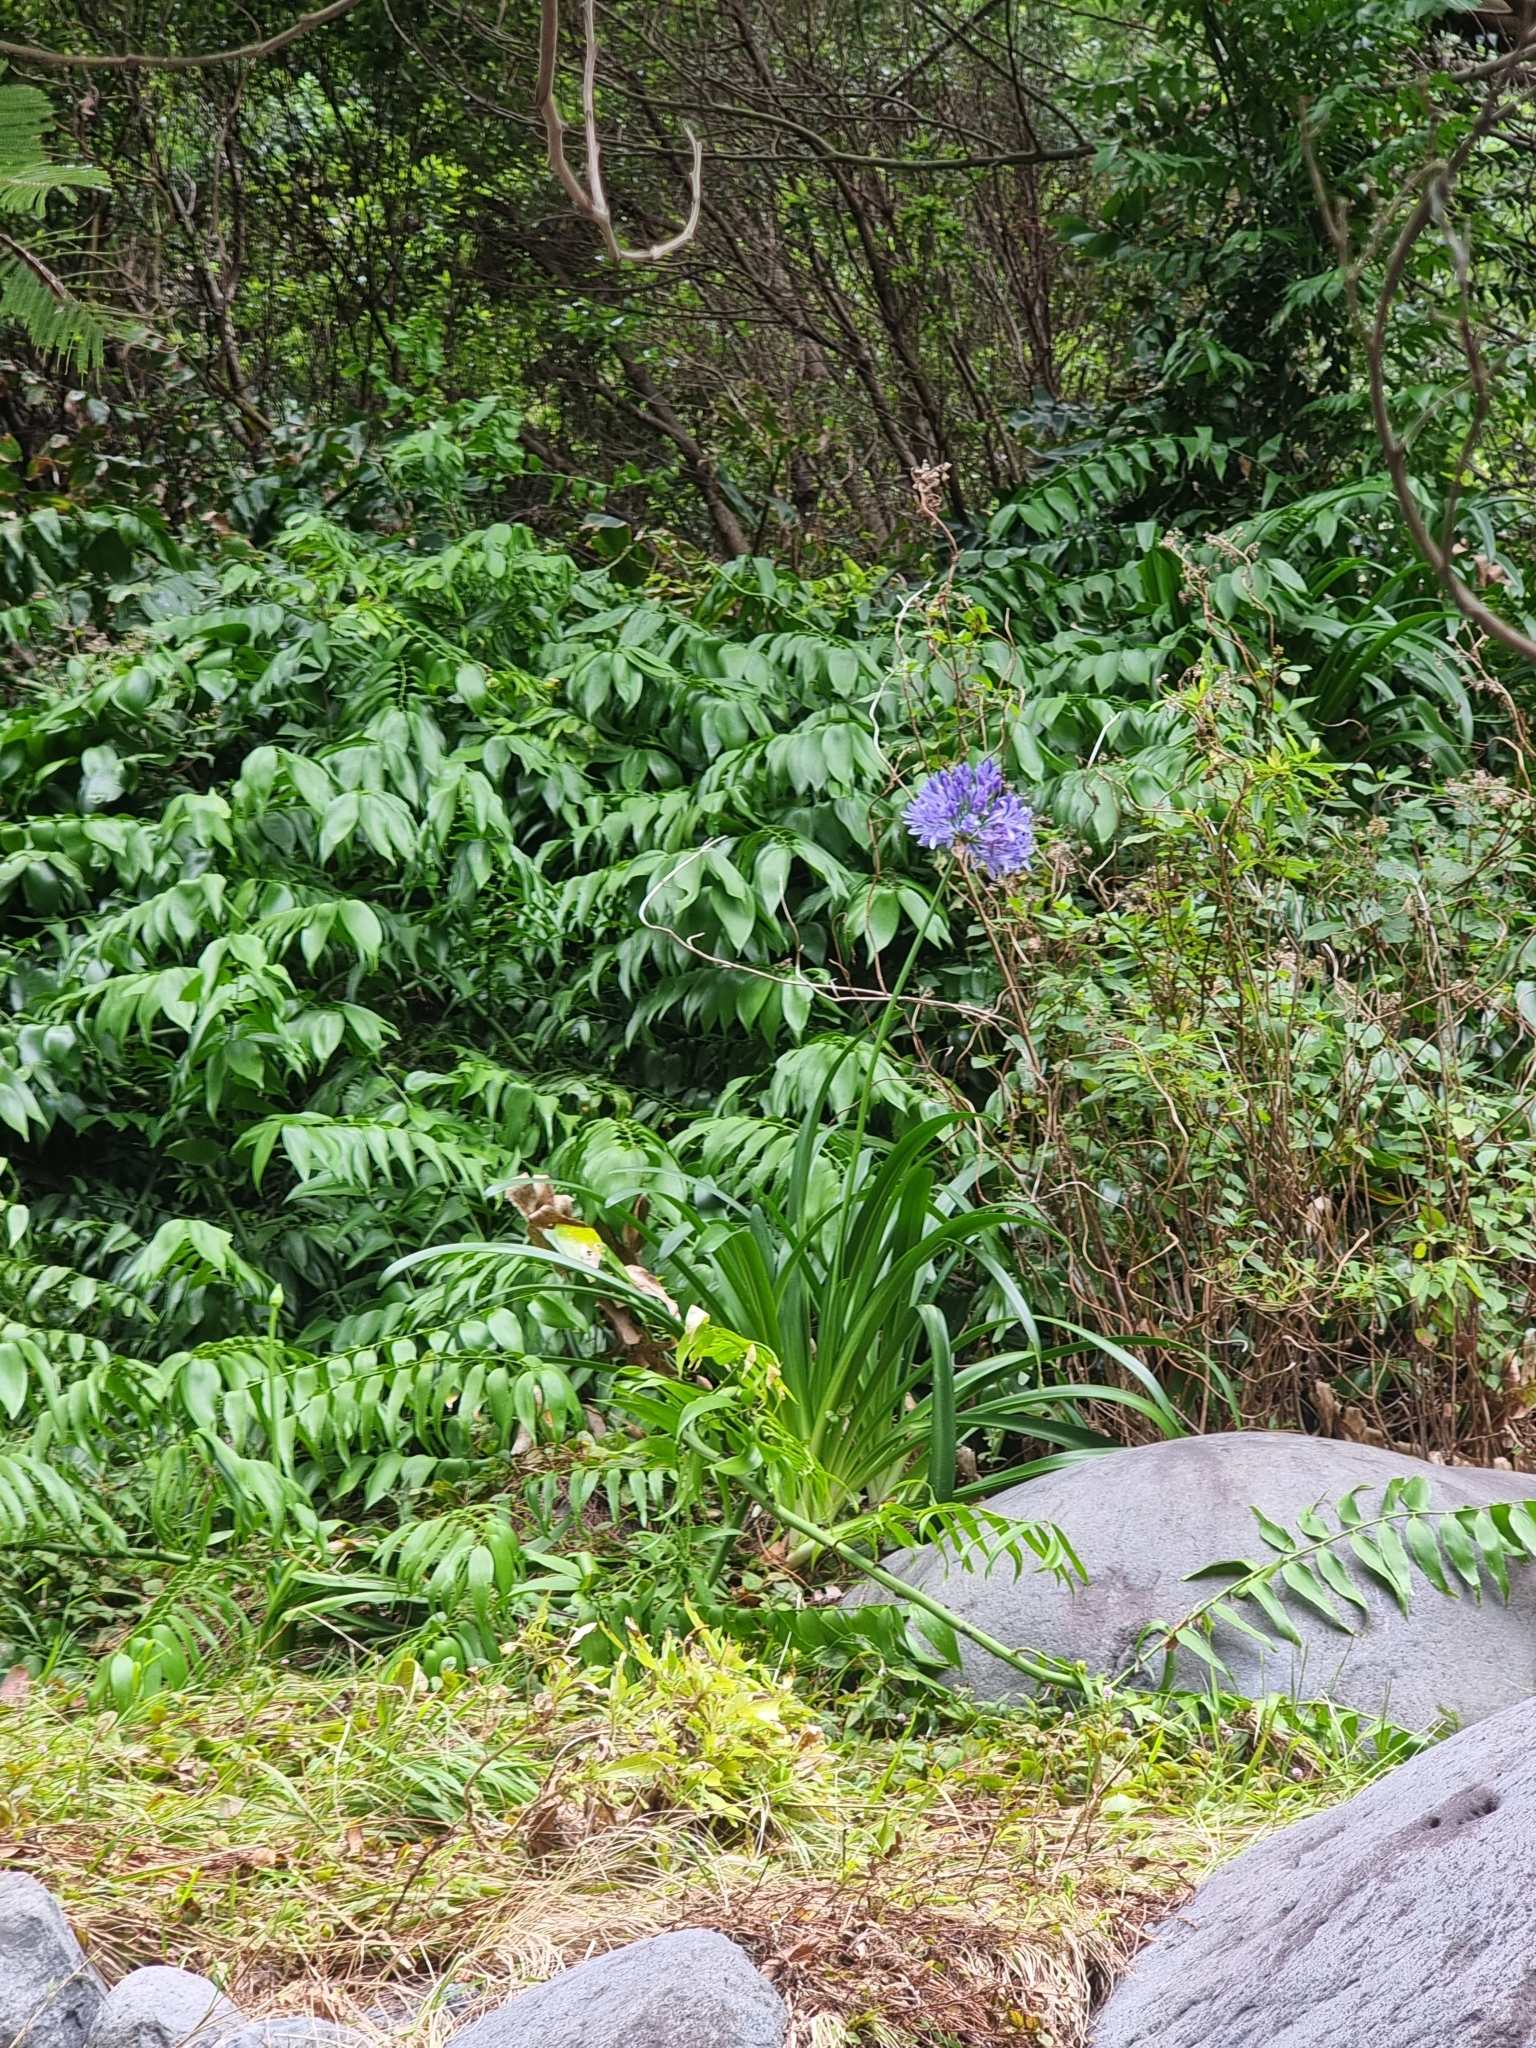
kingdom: Plantae
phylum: Tracheophyta
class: Liliopsida
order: Asparagales
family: Amaryllidaceae
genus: Agapanthus
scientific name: Agapanthus praecox
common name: African-lily
